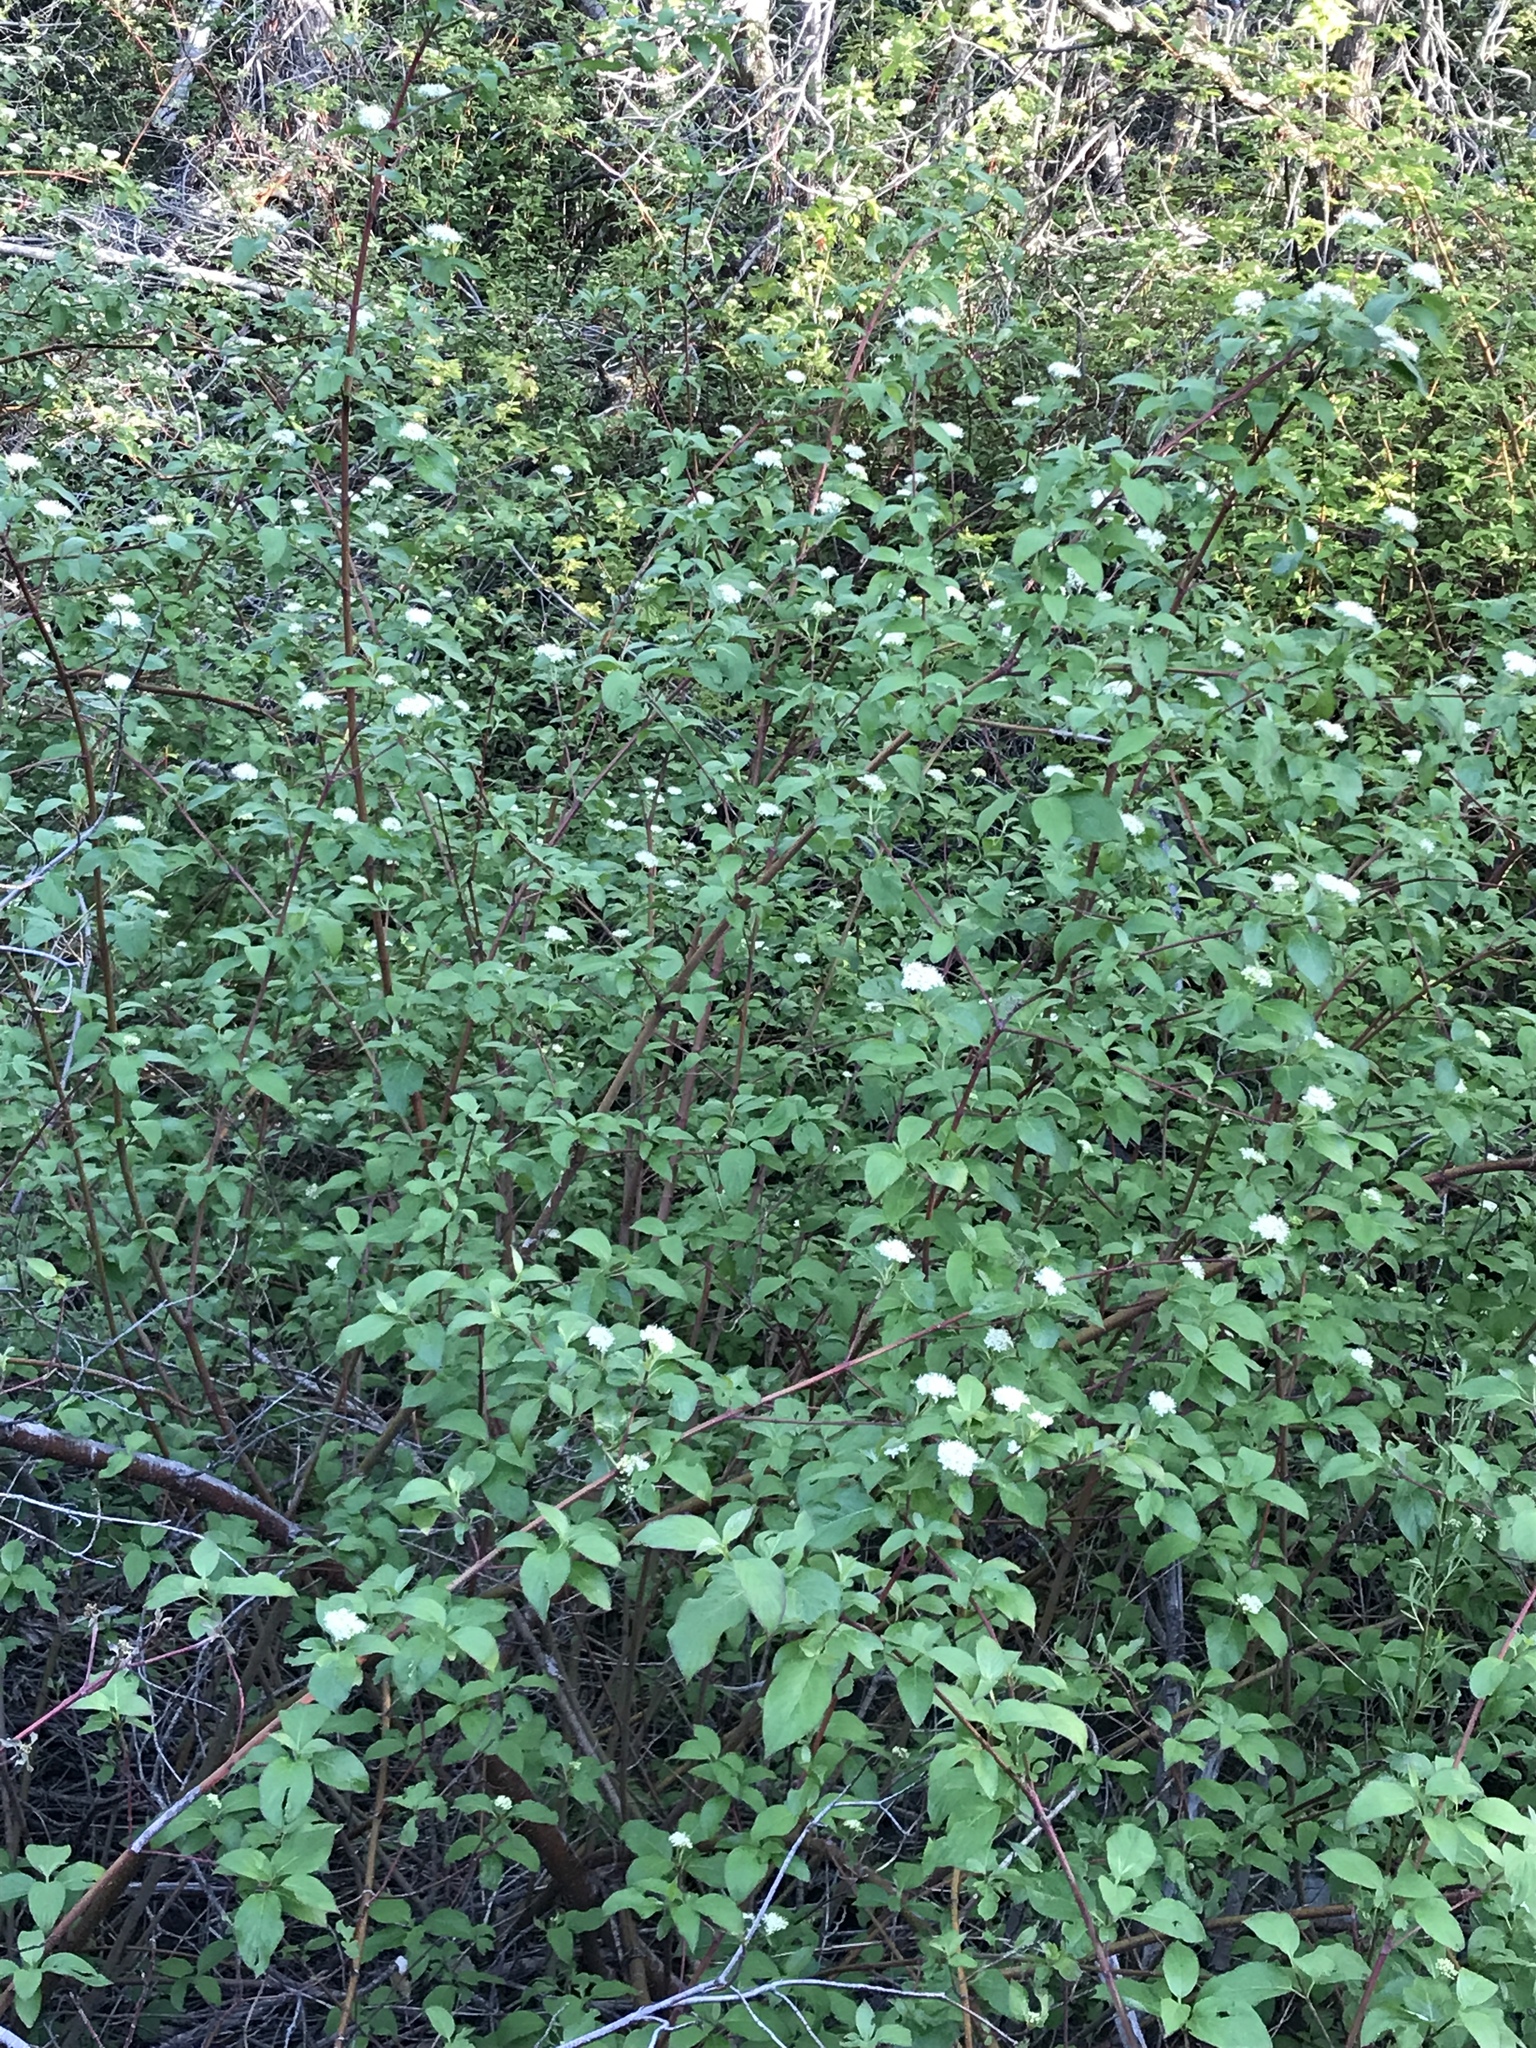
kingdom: Plantae
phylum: Tracheophyta
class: Magnoliopsida
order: Cornales
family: Cornaceae
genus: Cornus
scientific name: Cornus sericea
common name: Red-osier dogwood
